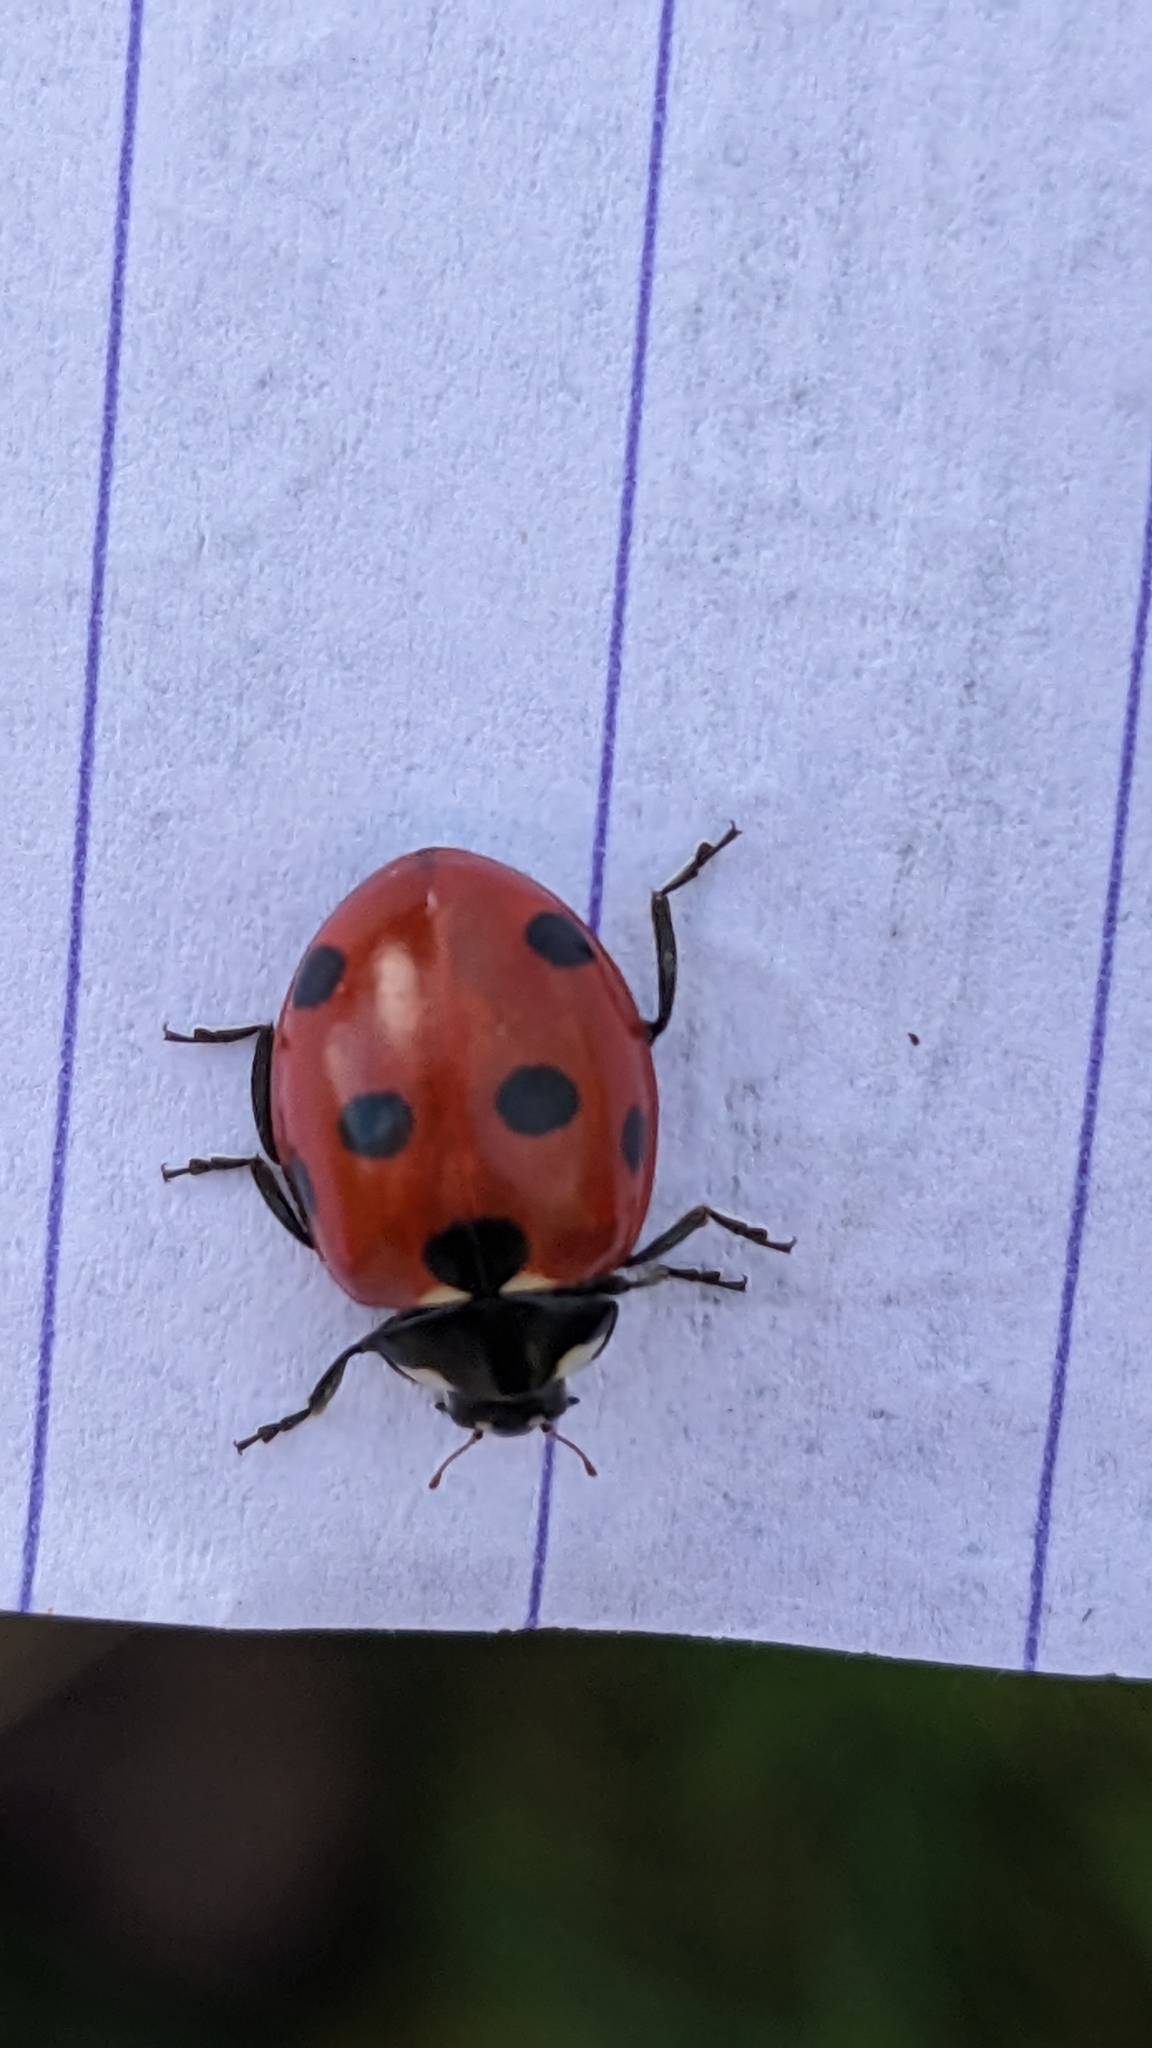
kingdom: Animalia
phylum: Arthropoda
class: Insecta
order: Coleoptera
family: Coccinellidae
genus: Coccinella
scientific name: Coccinella septempunctata
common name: Sevenspotted lady beetle
